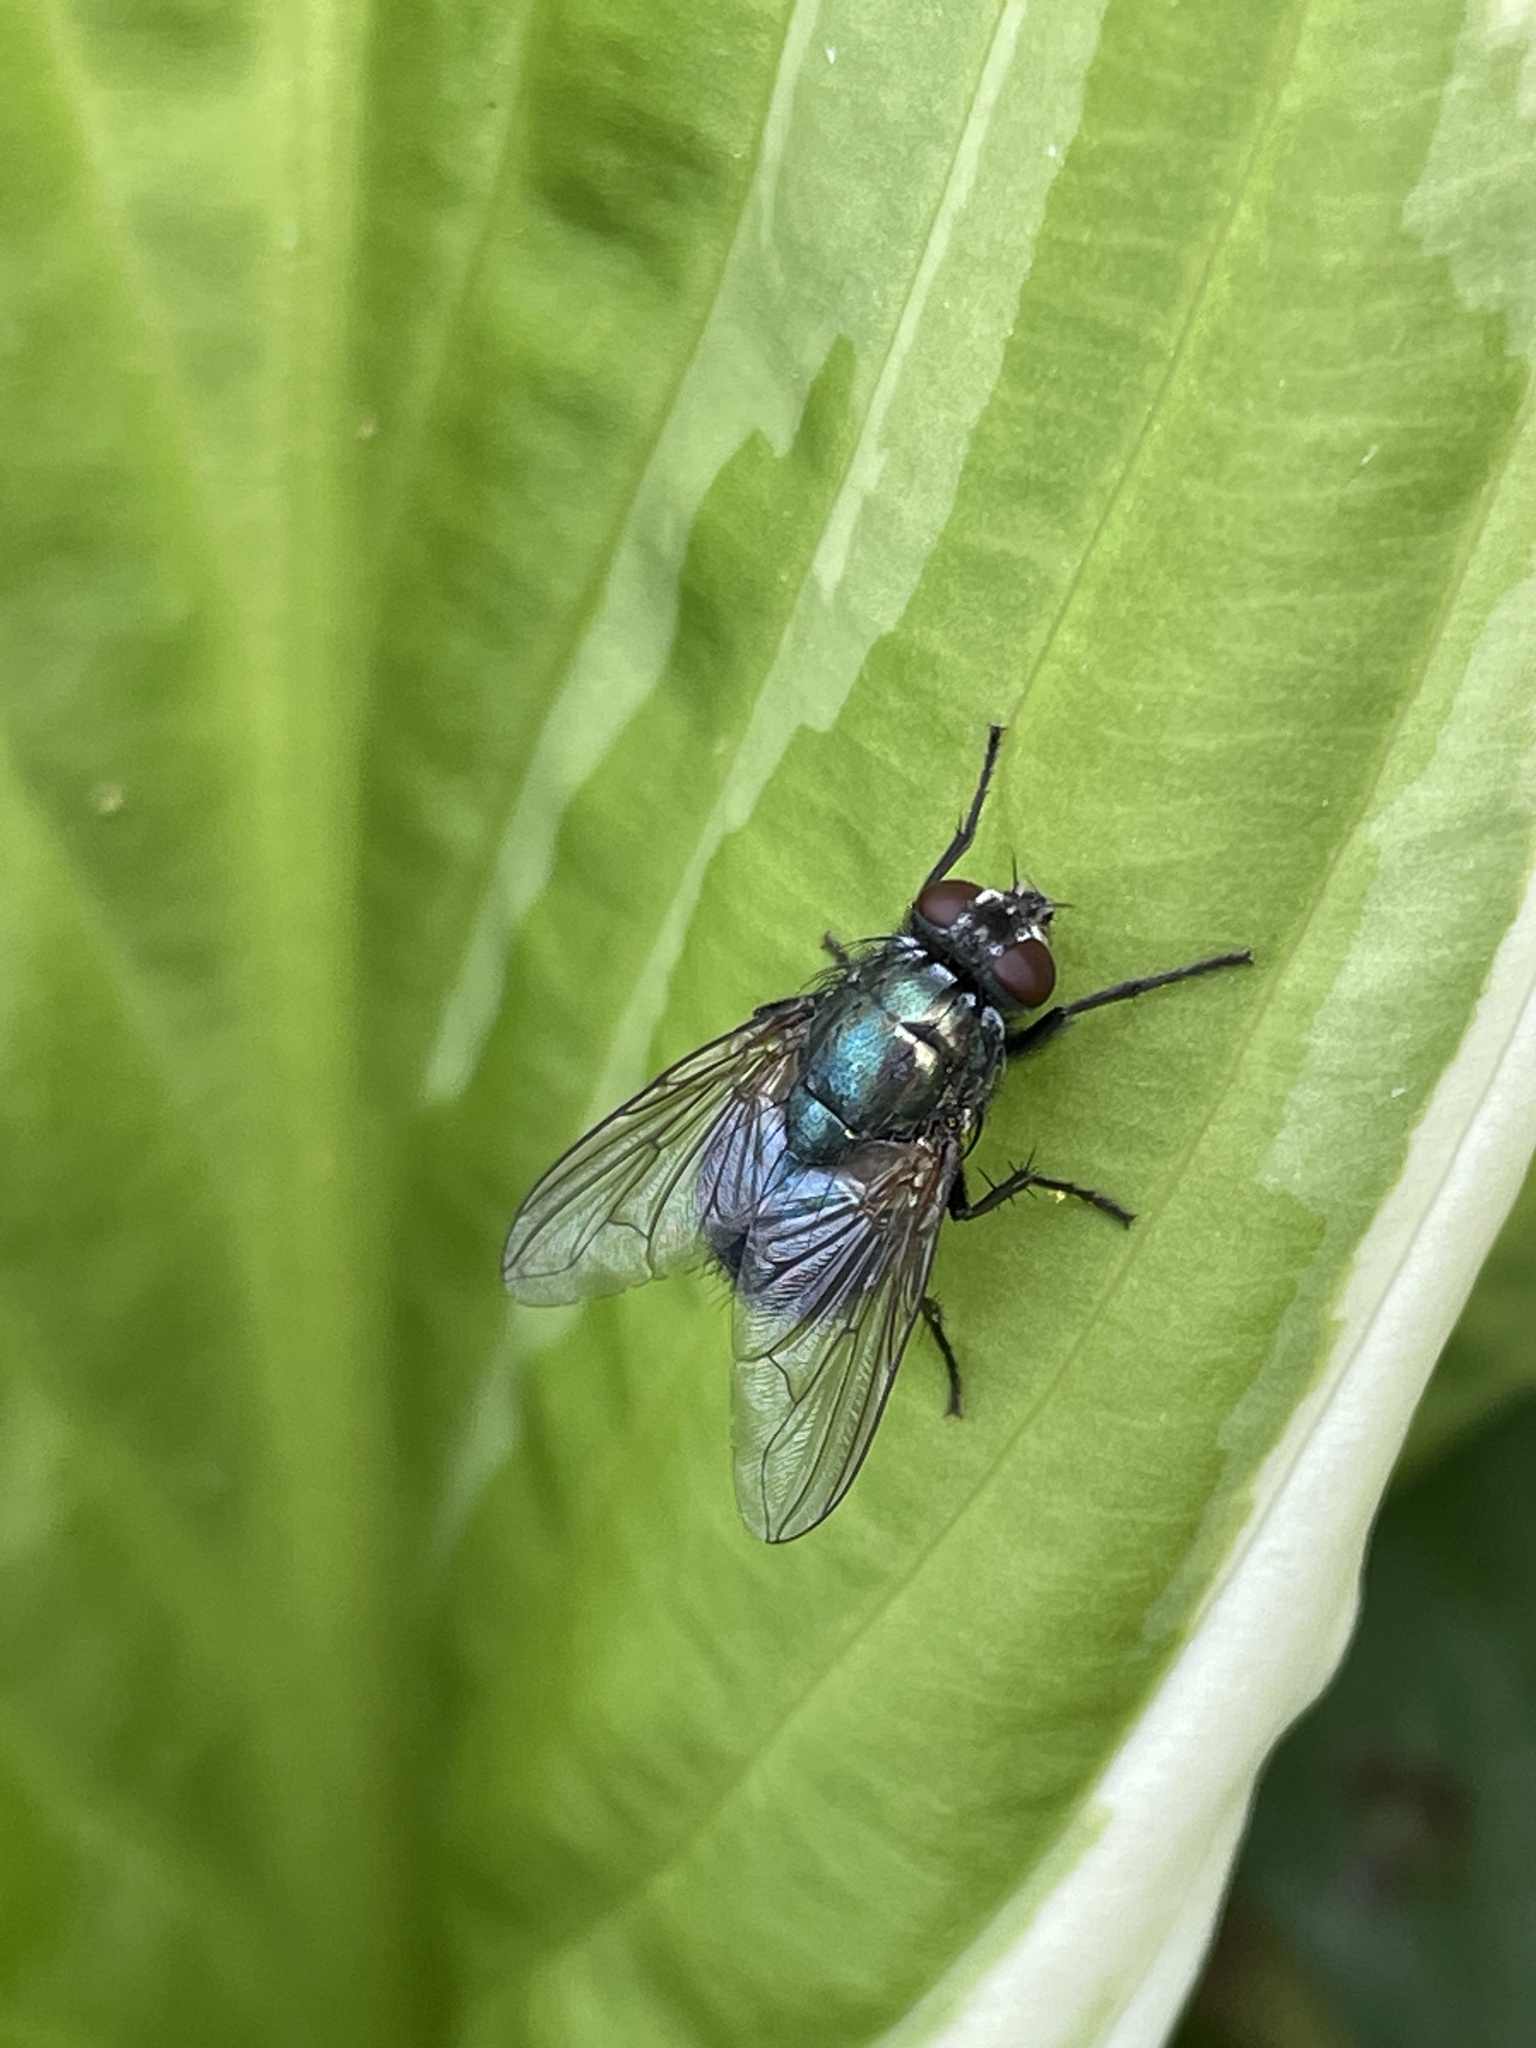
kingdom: Animalia
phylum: Arthropoda
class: Insecta
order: Diptera
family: Muscidae
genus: Dasyphora
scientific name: Dasyphora cyanella
